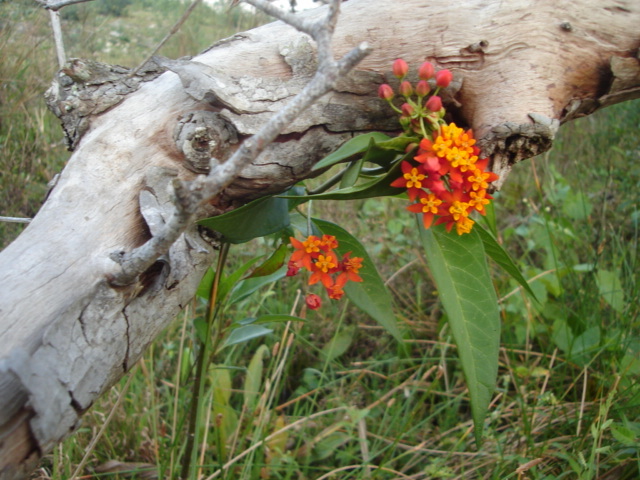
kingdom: Plantae
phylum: Tracheophyta
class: Magnoliopsida
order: Gentianales
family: Apocynaceae
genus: Asclepias
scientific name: Asclepias curassavica
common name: Bloodflower
